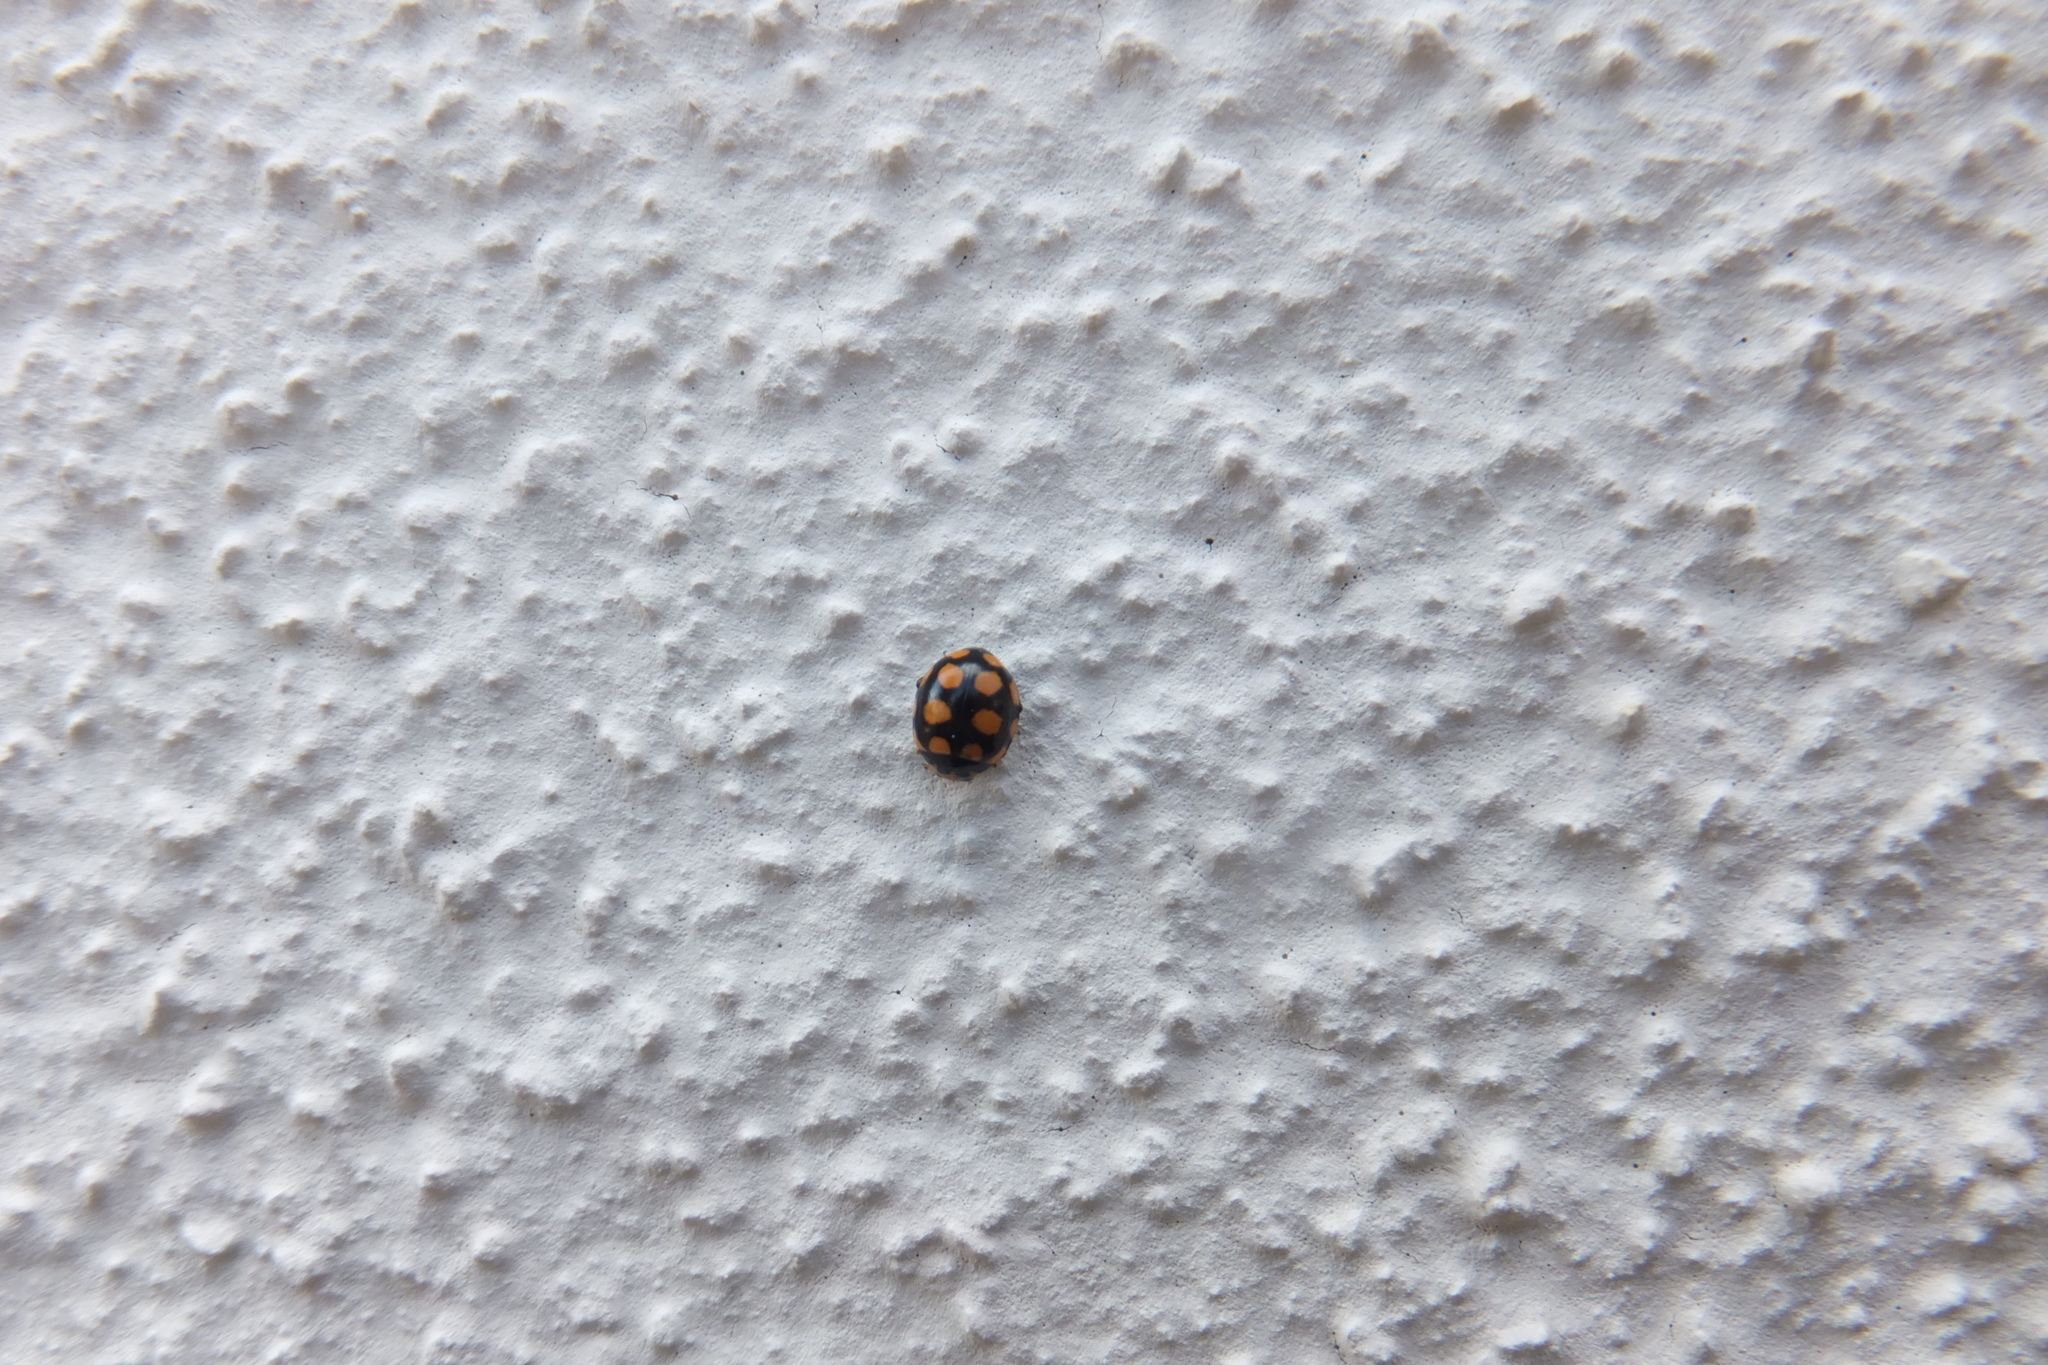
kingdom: Animalia
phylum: Arthropoda
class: Insecta
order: Coleoptera
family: Coccinellidae
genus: Coccinula
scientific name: Coccinula quatuordecimpustulata
